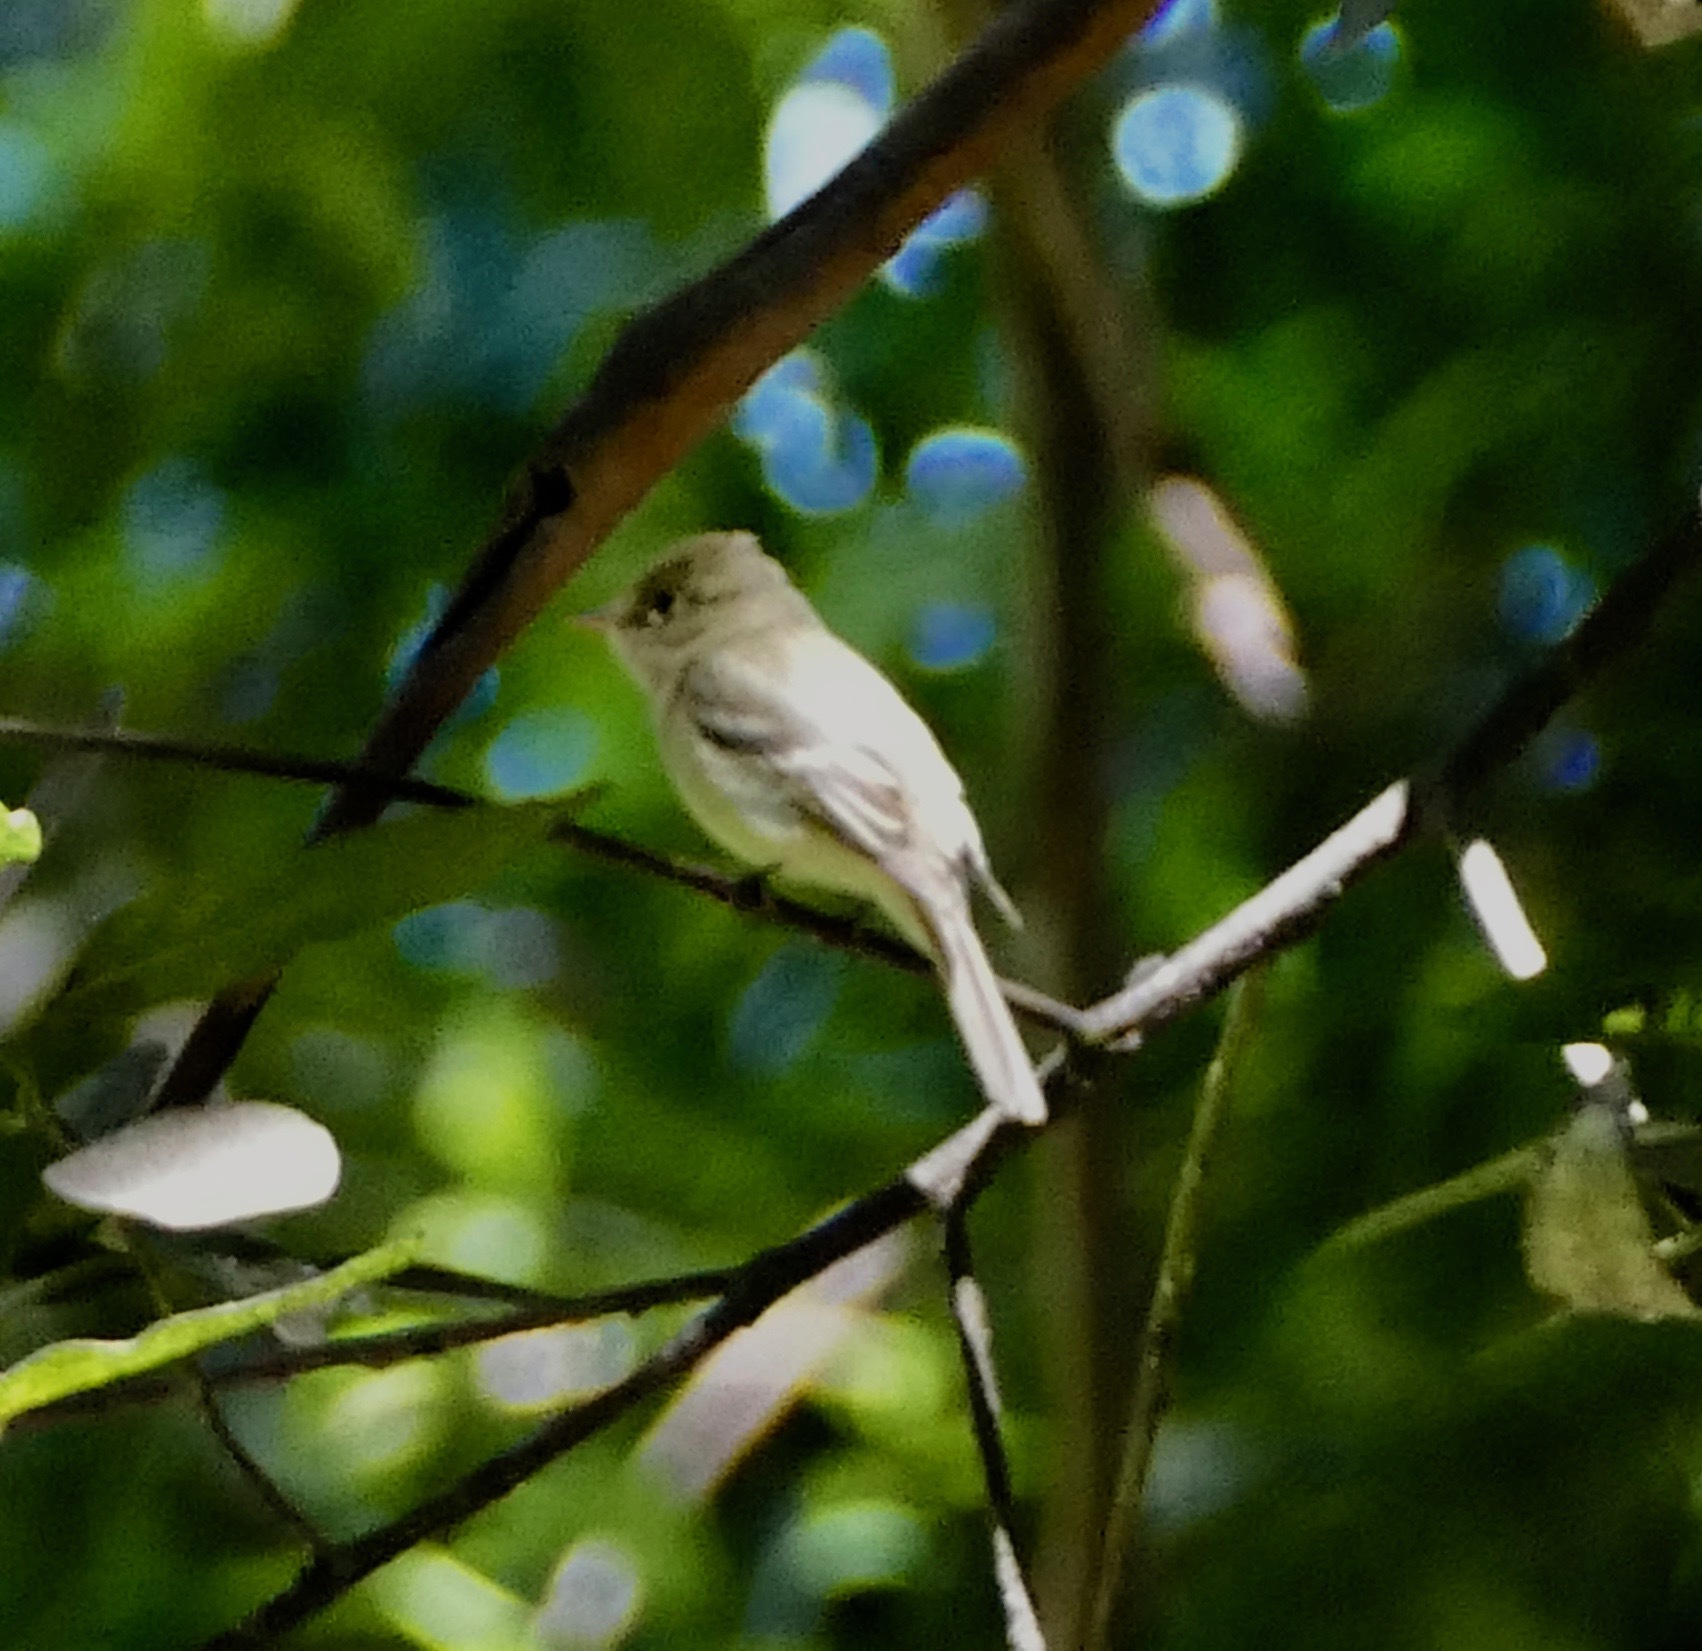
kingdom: Animalia
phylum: Chordata
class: Aves
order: Passeriformes
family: Tyrannidae
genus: Empidonax
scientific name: Empidonax difficilis
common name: Pacific-slope flycatcher
